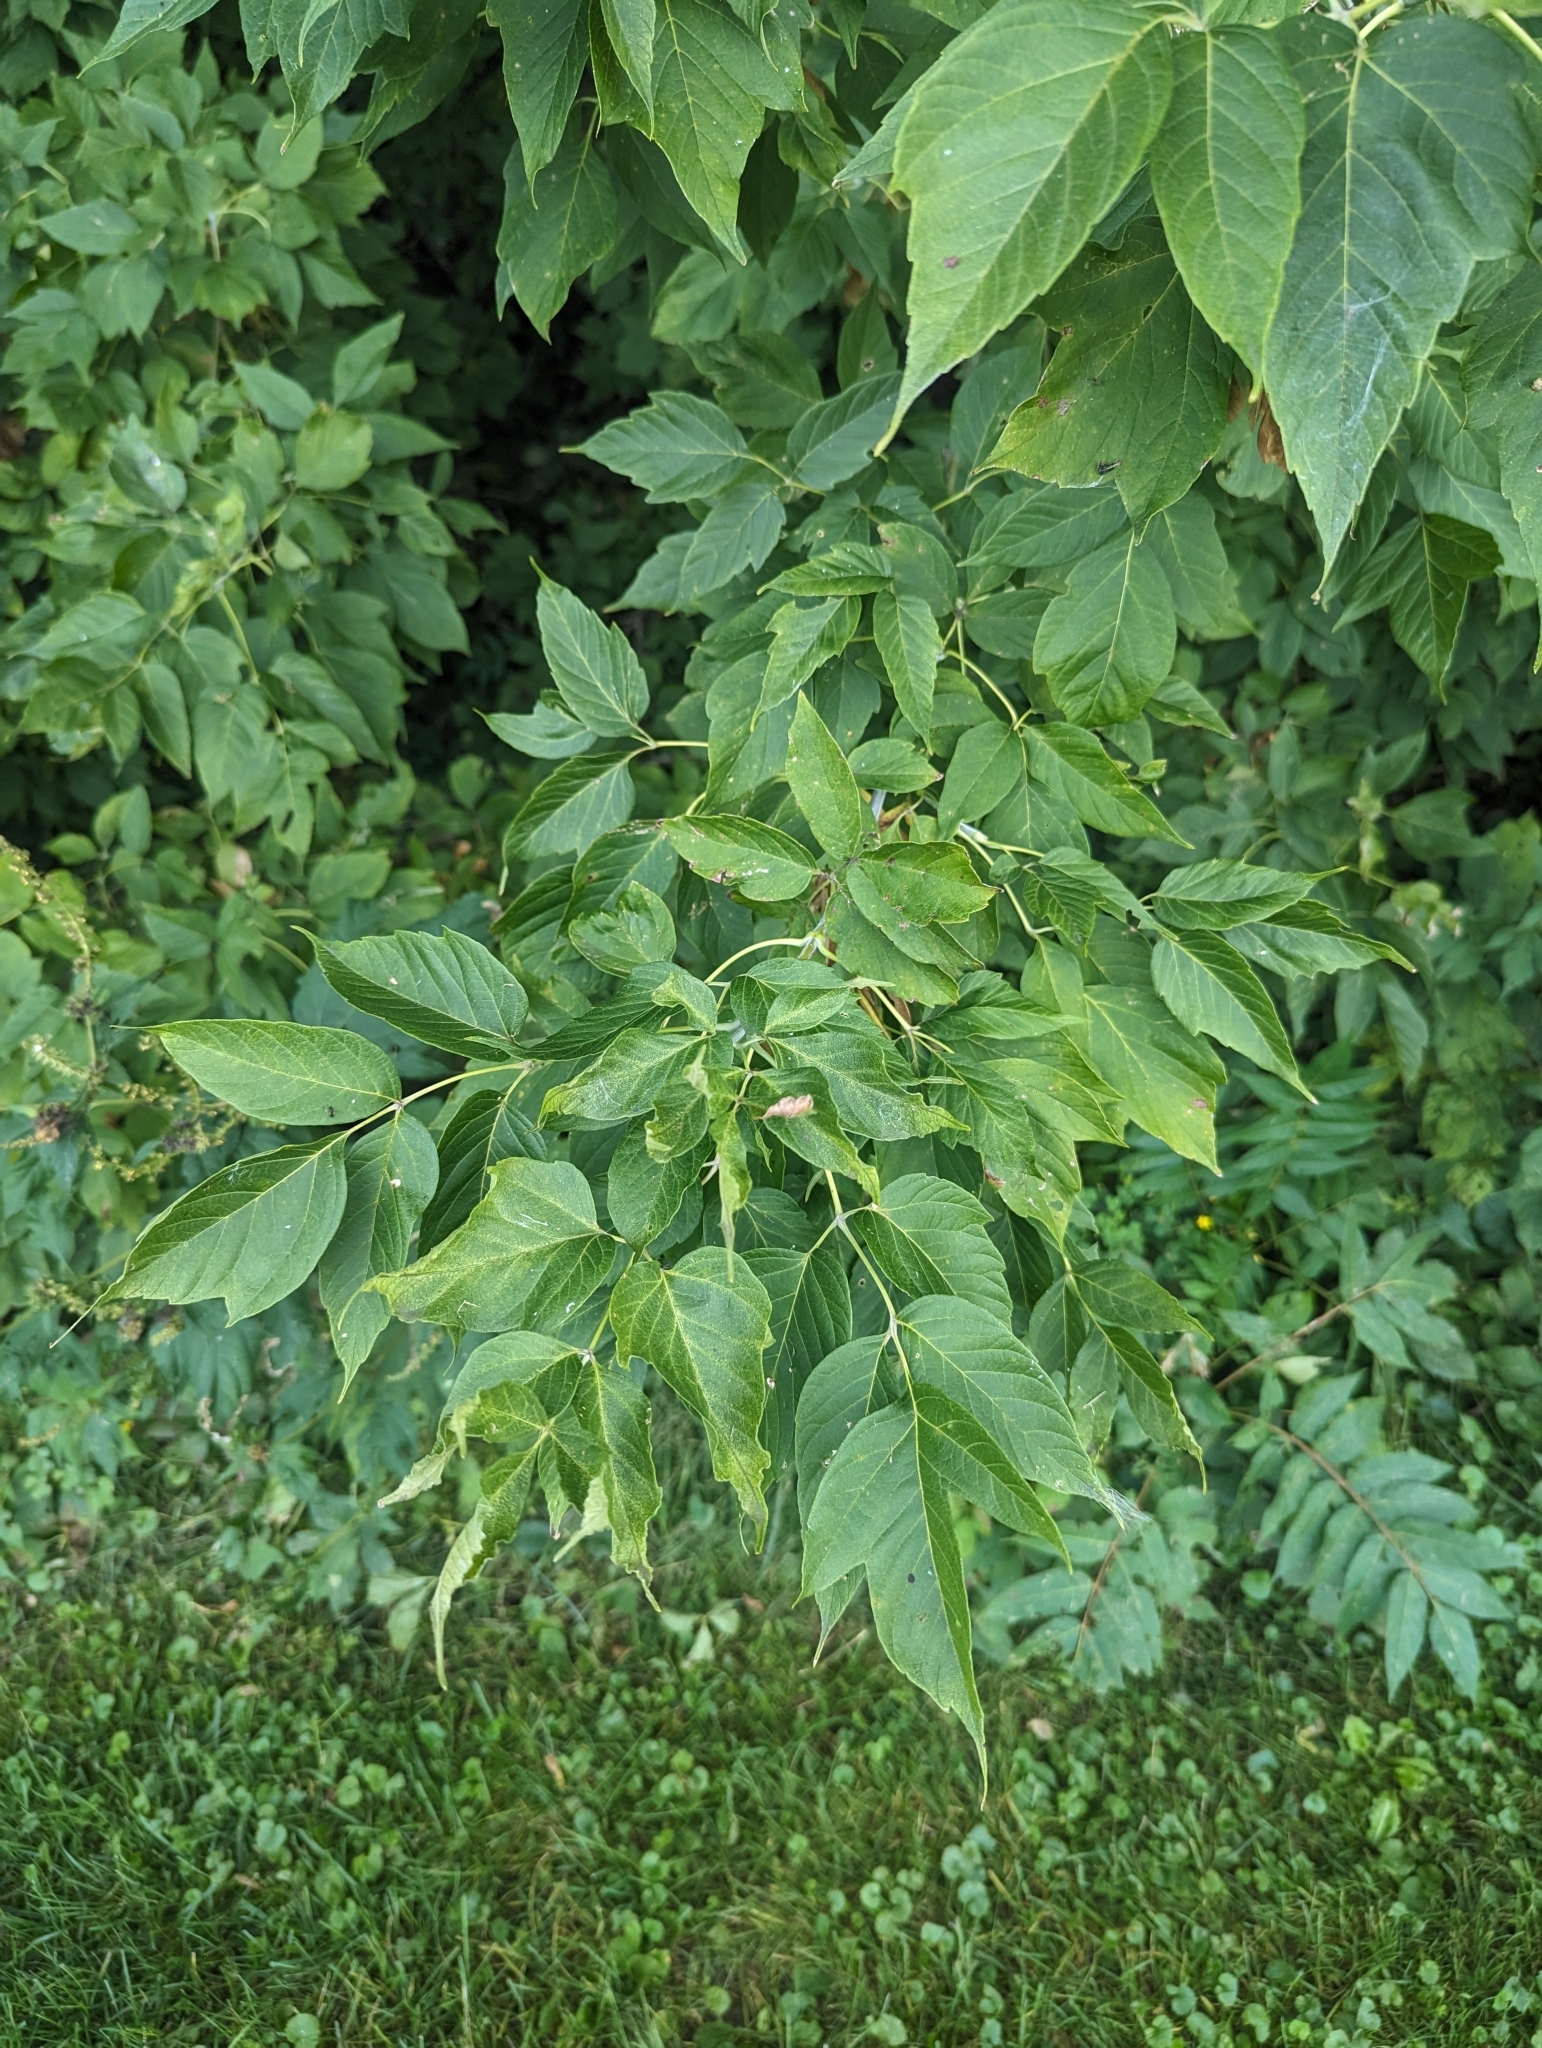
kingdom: Plantae
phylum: Tracheophyta
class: Magnoliopsida
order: Sapindales
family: Sapindaceae
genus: Acer
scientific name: Acer negundo
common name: Ashleaf maple
